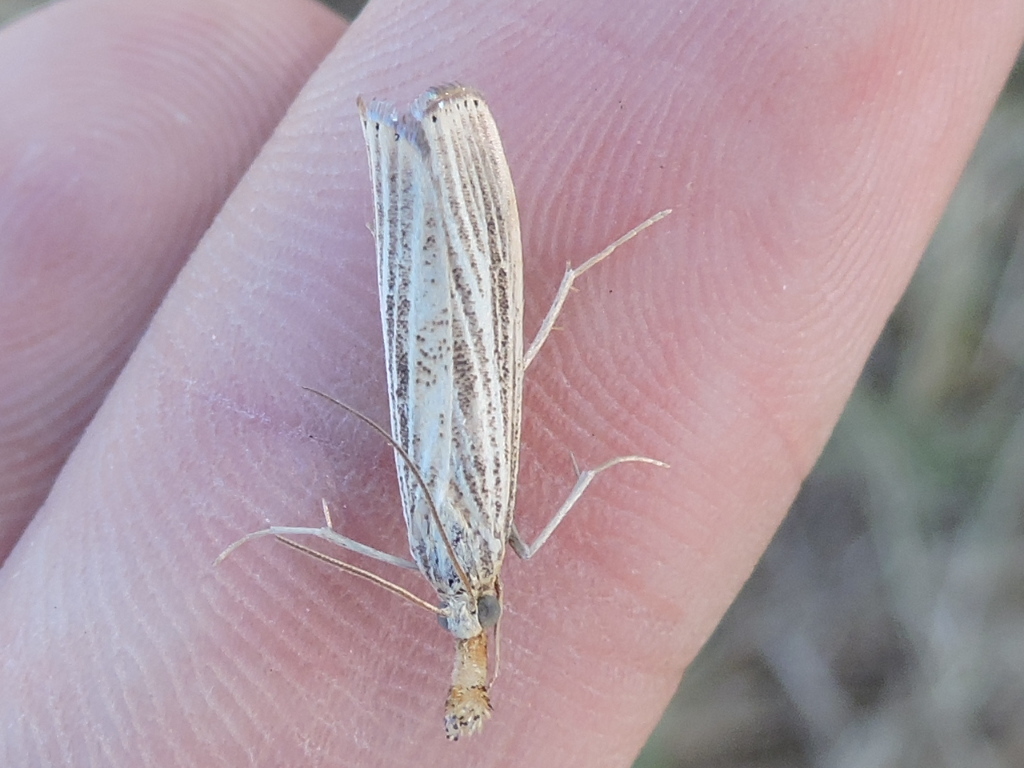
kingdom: Animalia
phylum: Arthropoda
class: Insecta
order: Lepidoptera
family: Crambidae
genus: Agriphila
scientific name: Agriphila vulgivagellus
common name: Vagabond crambus moth
